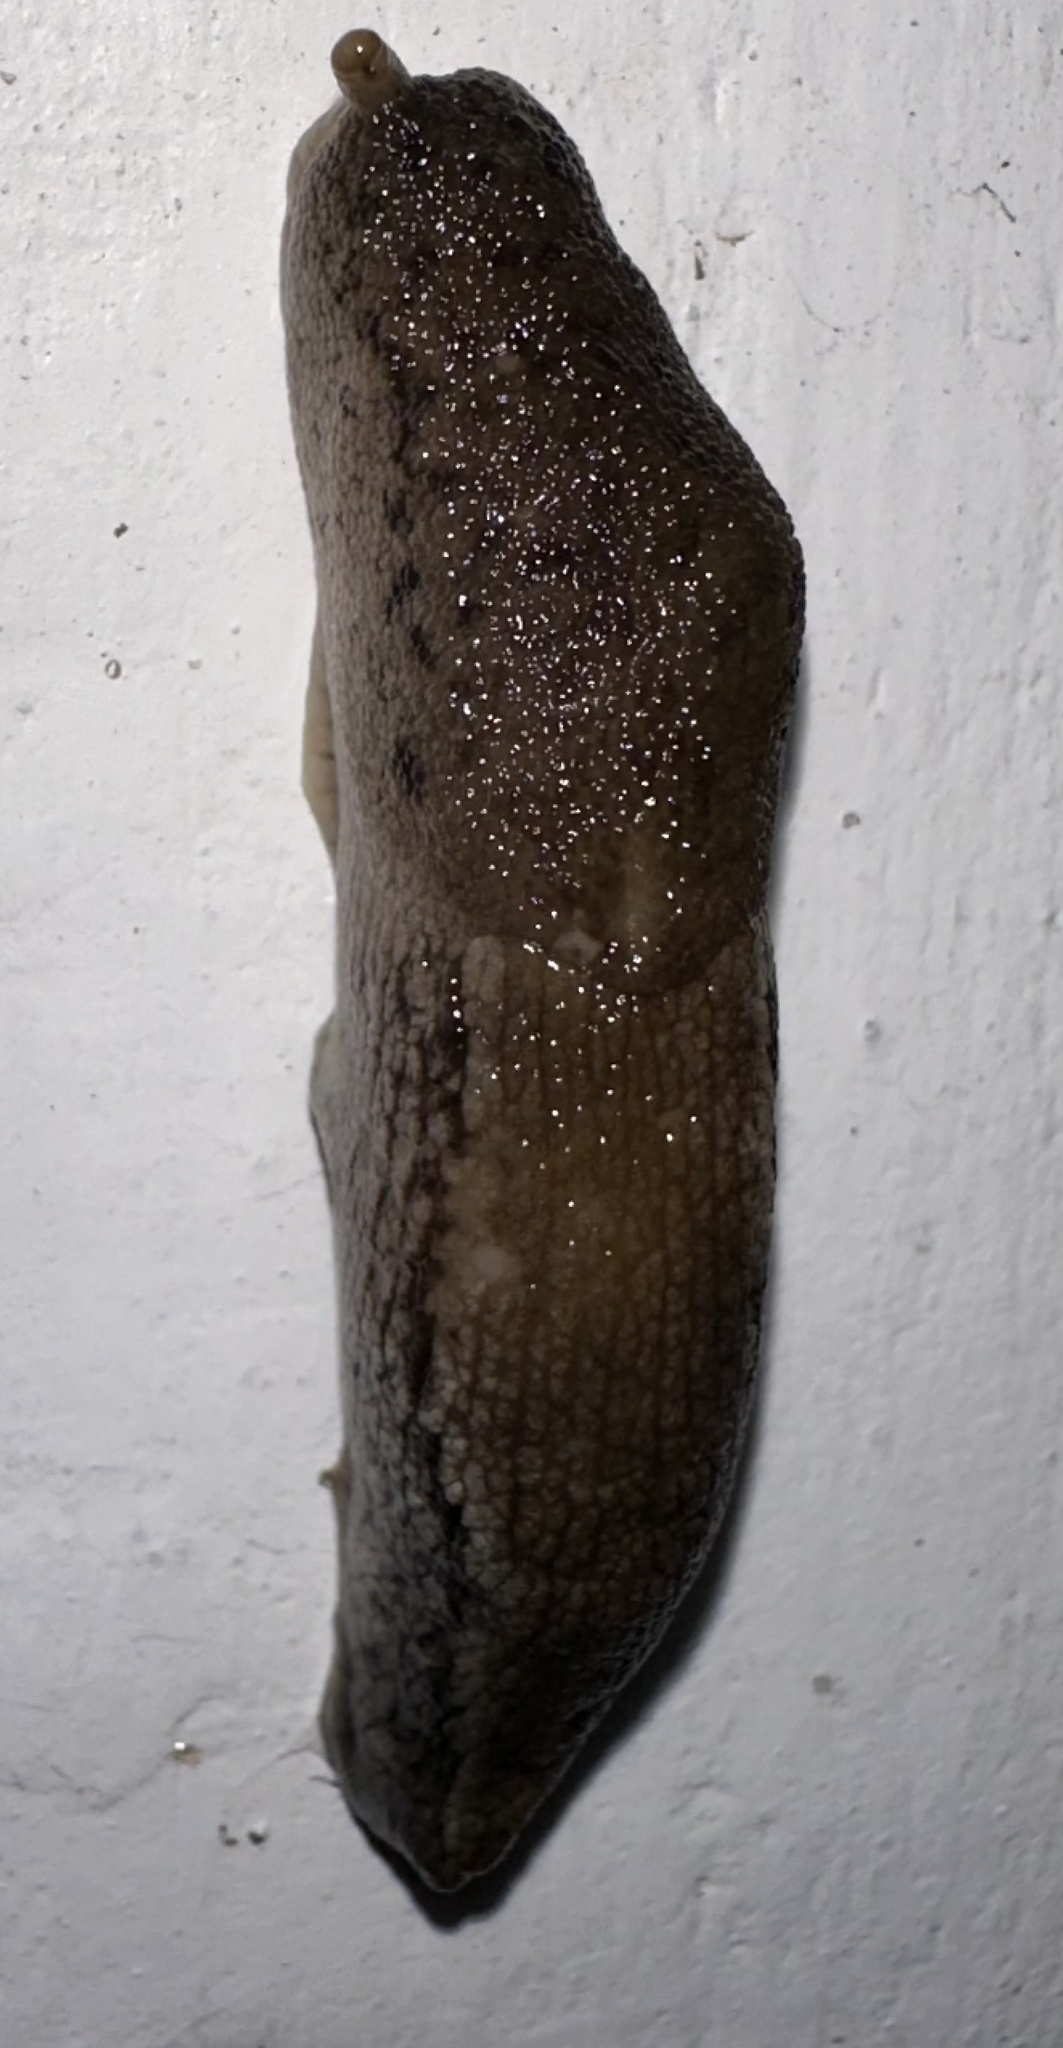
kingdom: Animalia
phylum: Mollusca
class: Gastropoda
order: Stylommatophora
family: Urocyclidae
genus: Urocyclus
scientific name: Urocyclus kirkii
